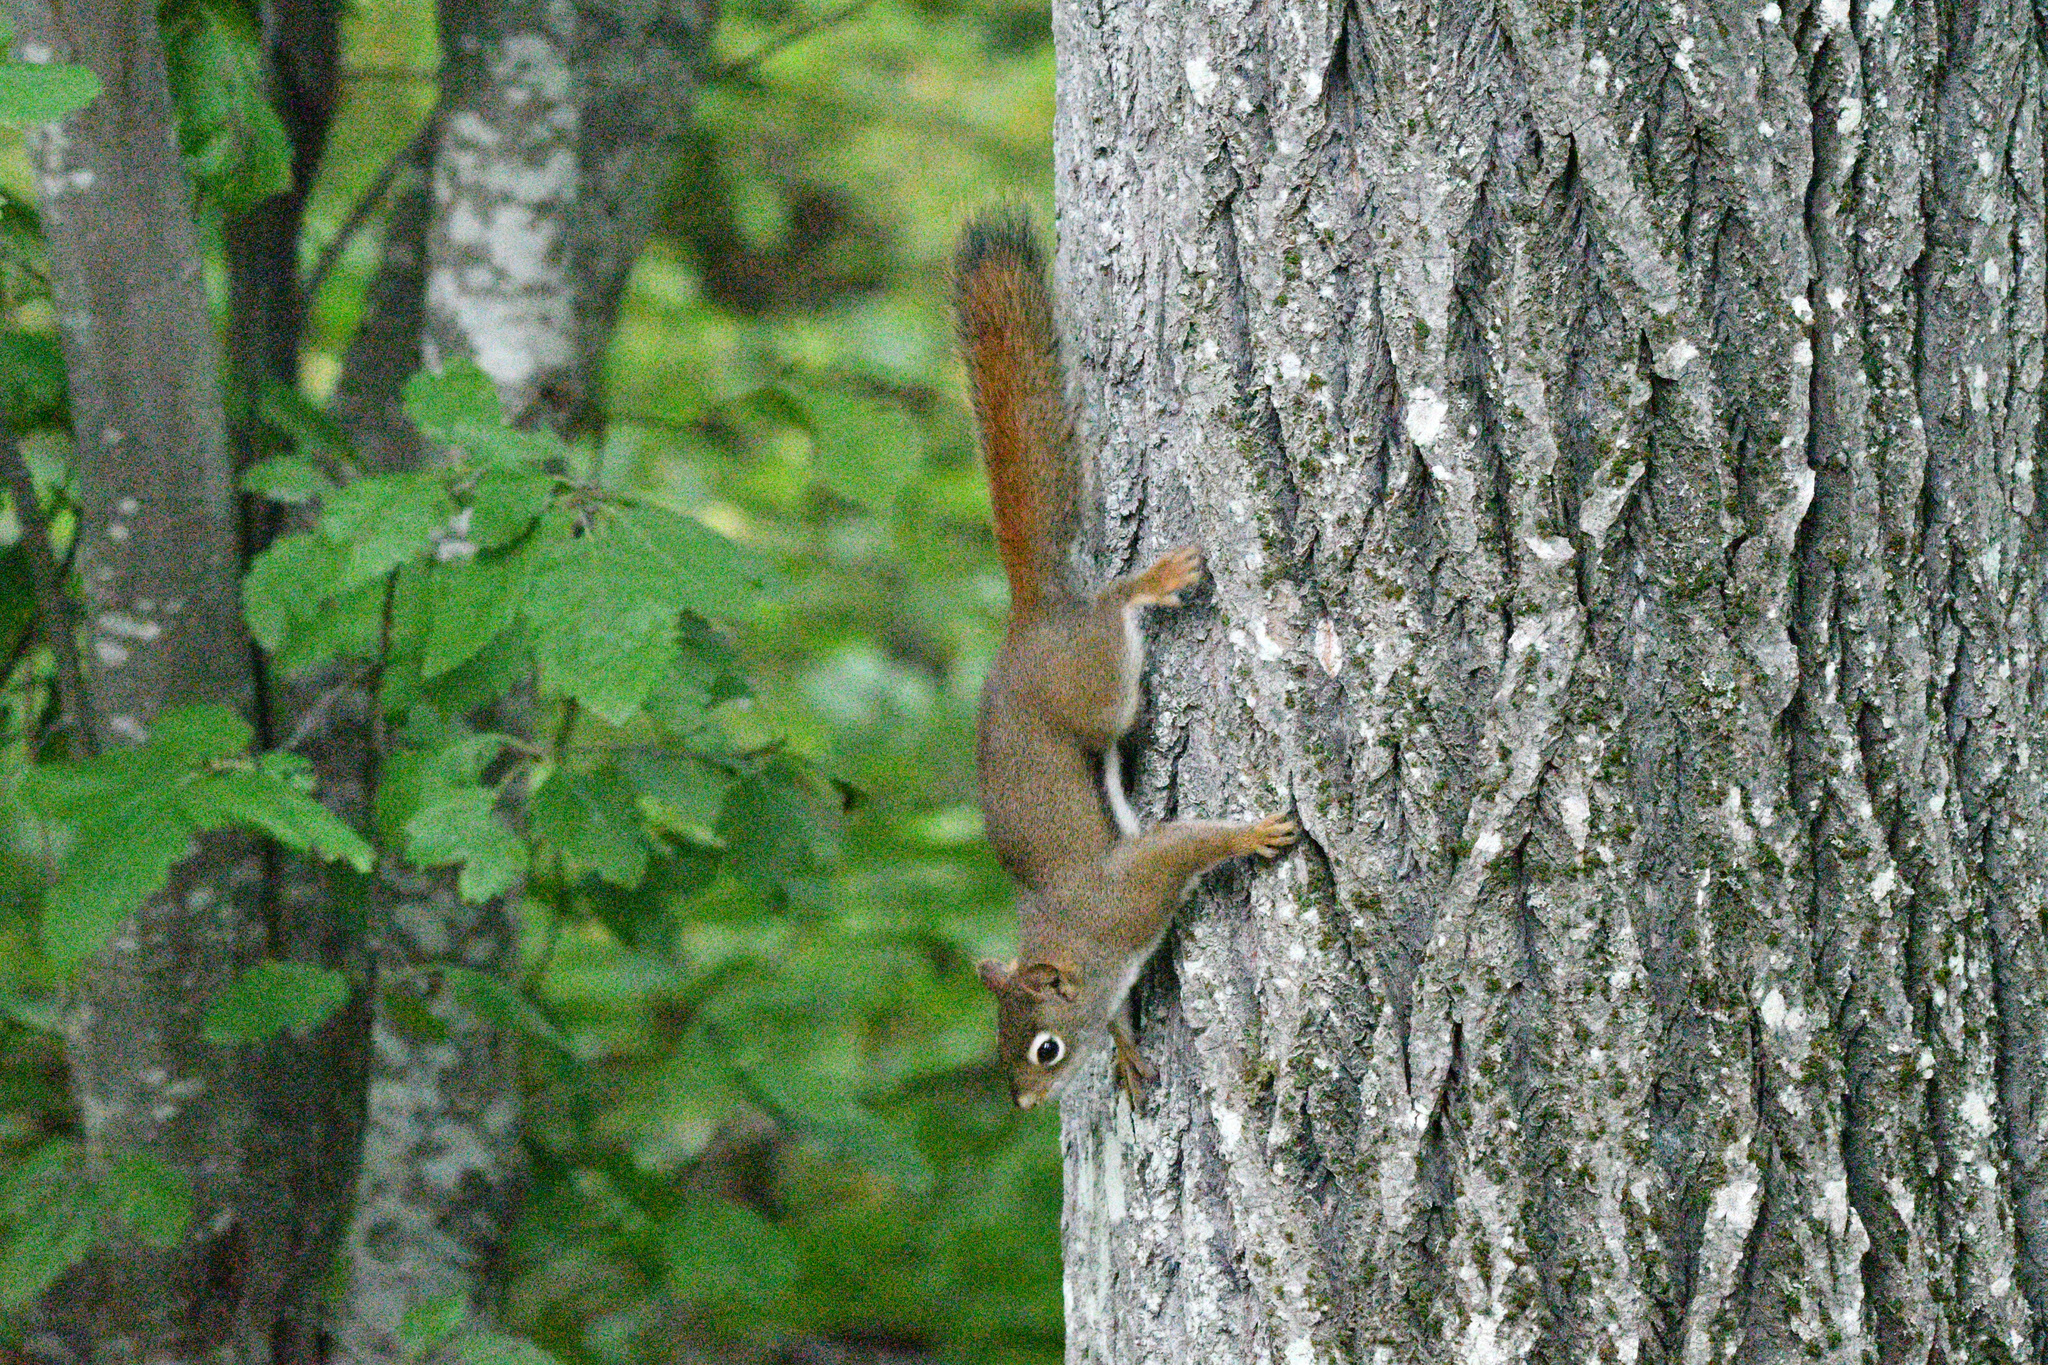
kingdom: Animalia
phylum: Chordata
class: Mammalia
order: Rodentia
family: Sciuridae
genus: Tamiasciurus
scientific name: Tamiasciurus hudsonicus
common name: Red squirrel
